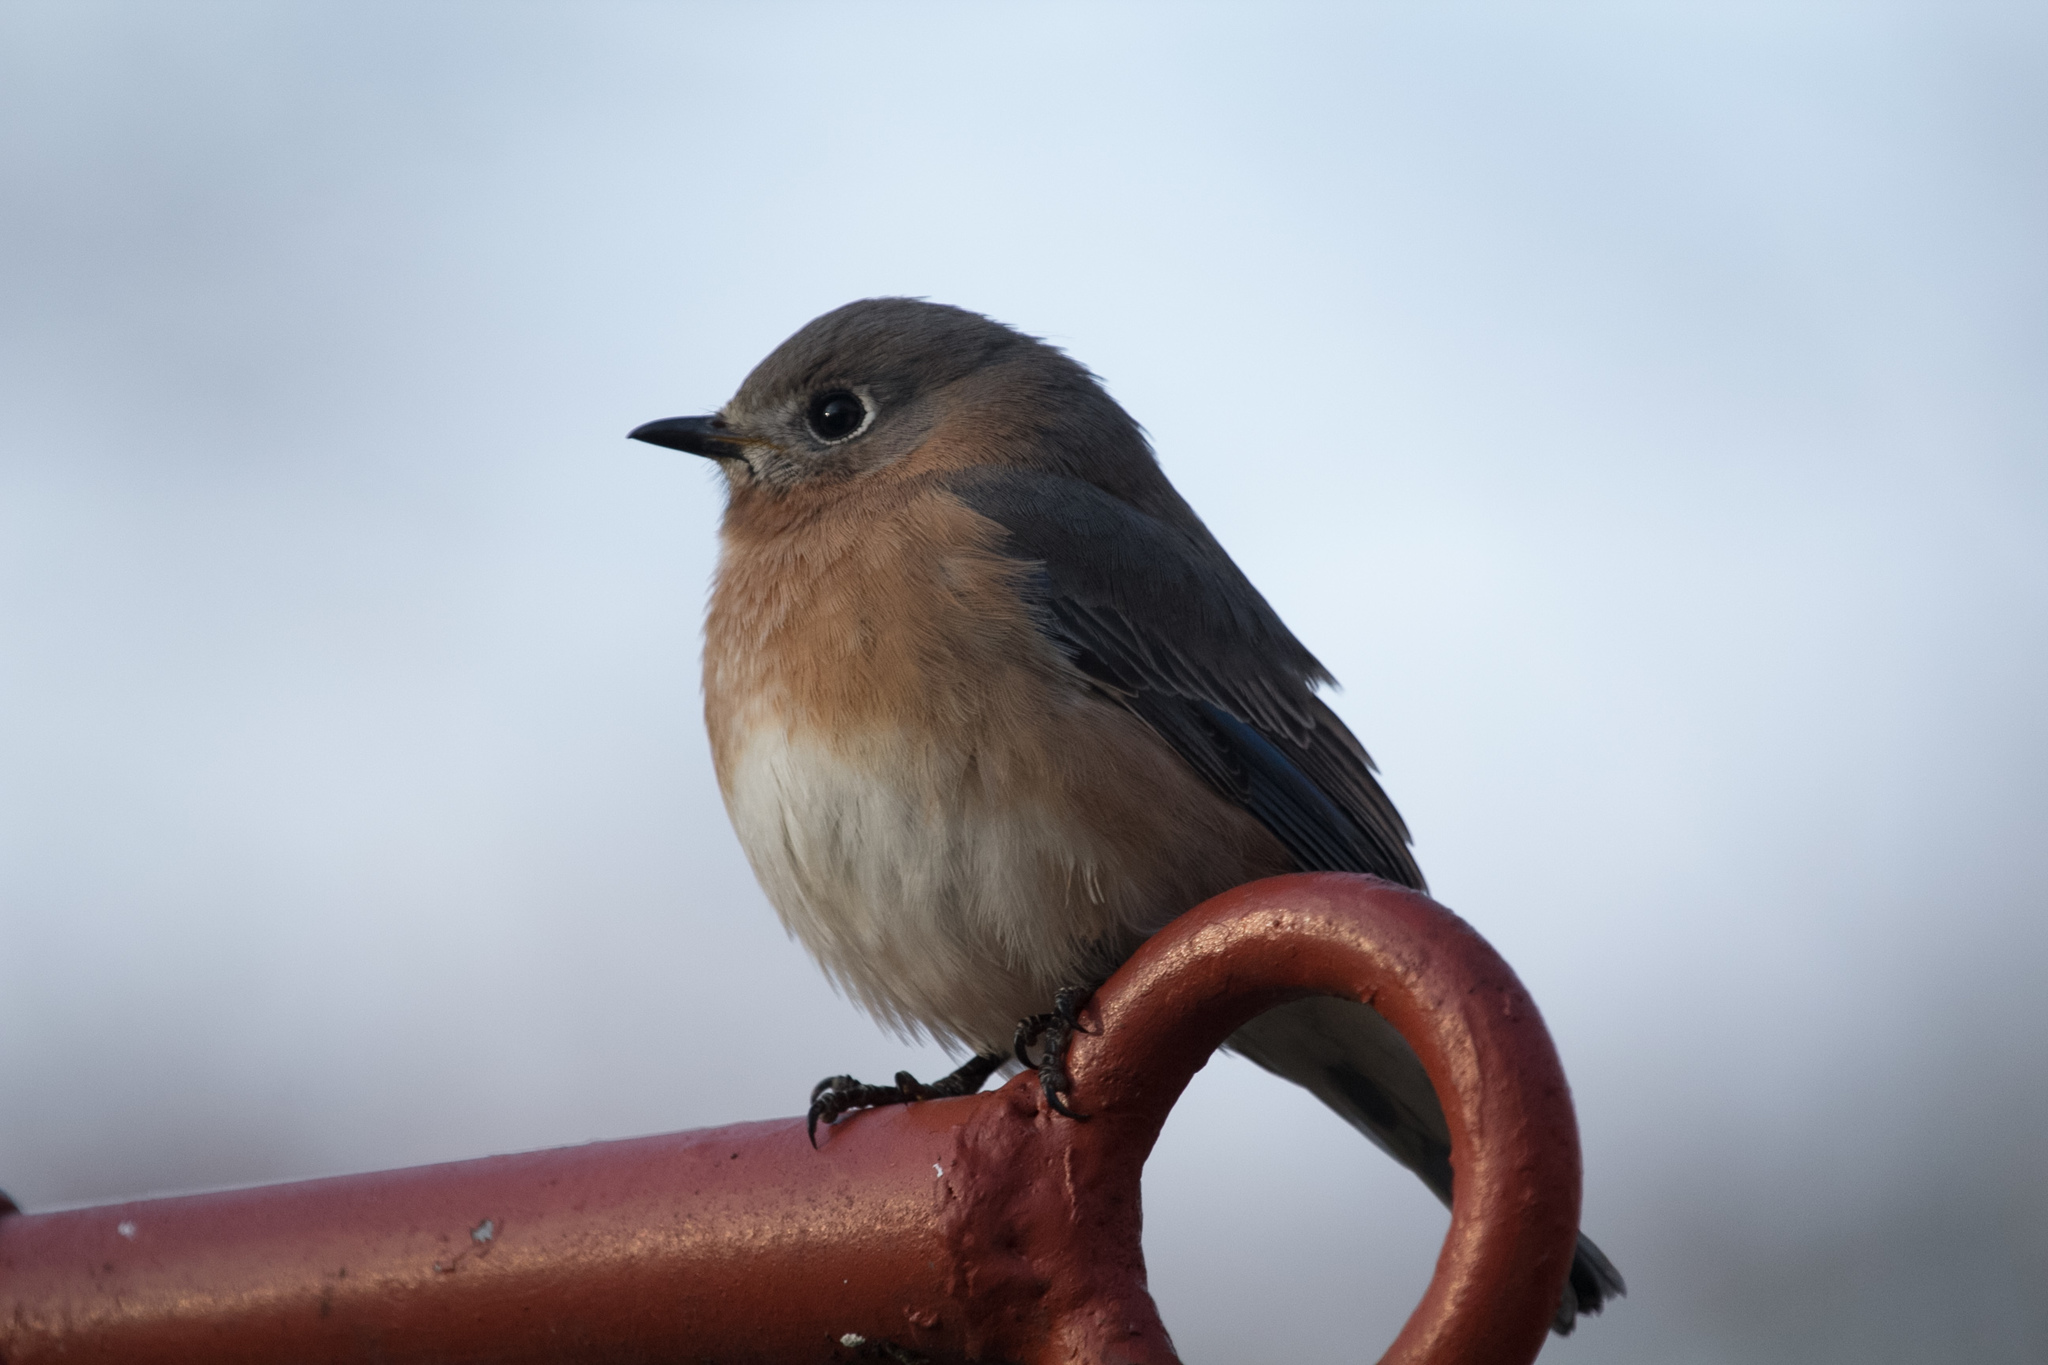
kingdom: Animalia
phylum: Chordata
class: Aves
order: Passeriformes
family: Turdidae
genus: Sialia
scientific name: Sialia sialis
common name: Eastern bluebird
